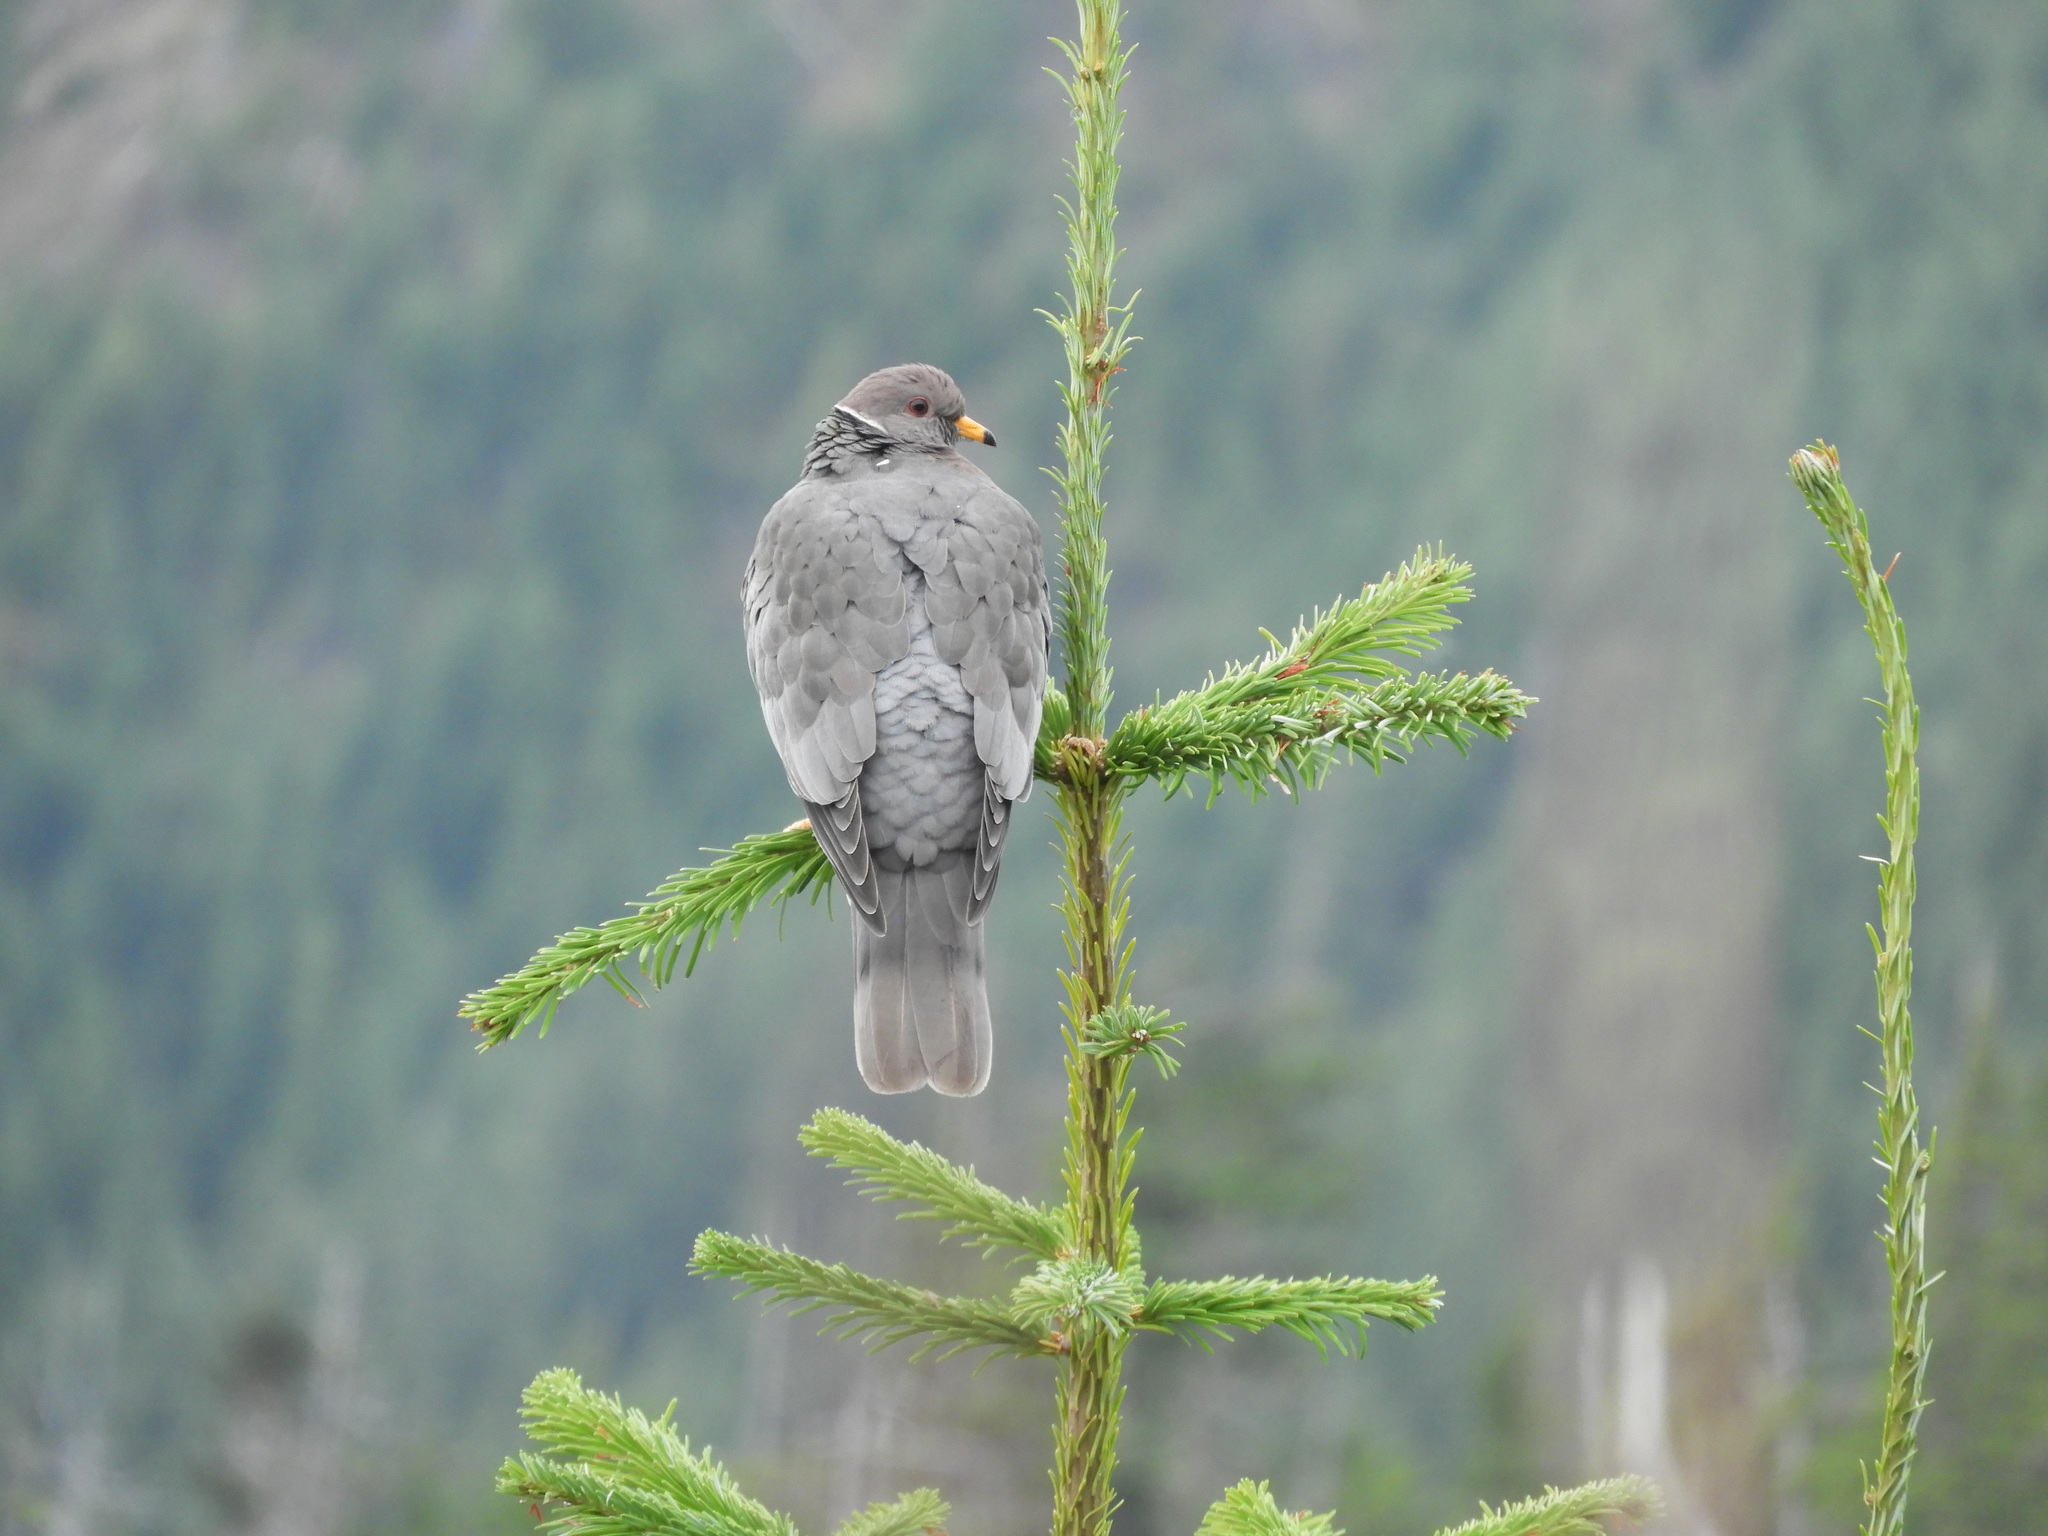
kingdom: Animalia
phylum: Chordata
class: Aves
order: Columbiformes
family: Columbidae
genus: Patagioenas
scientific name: Patagioenas fasciata
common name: Band-tailed pigeon
